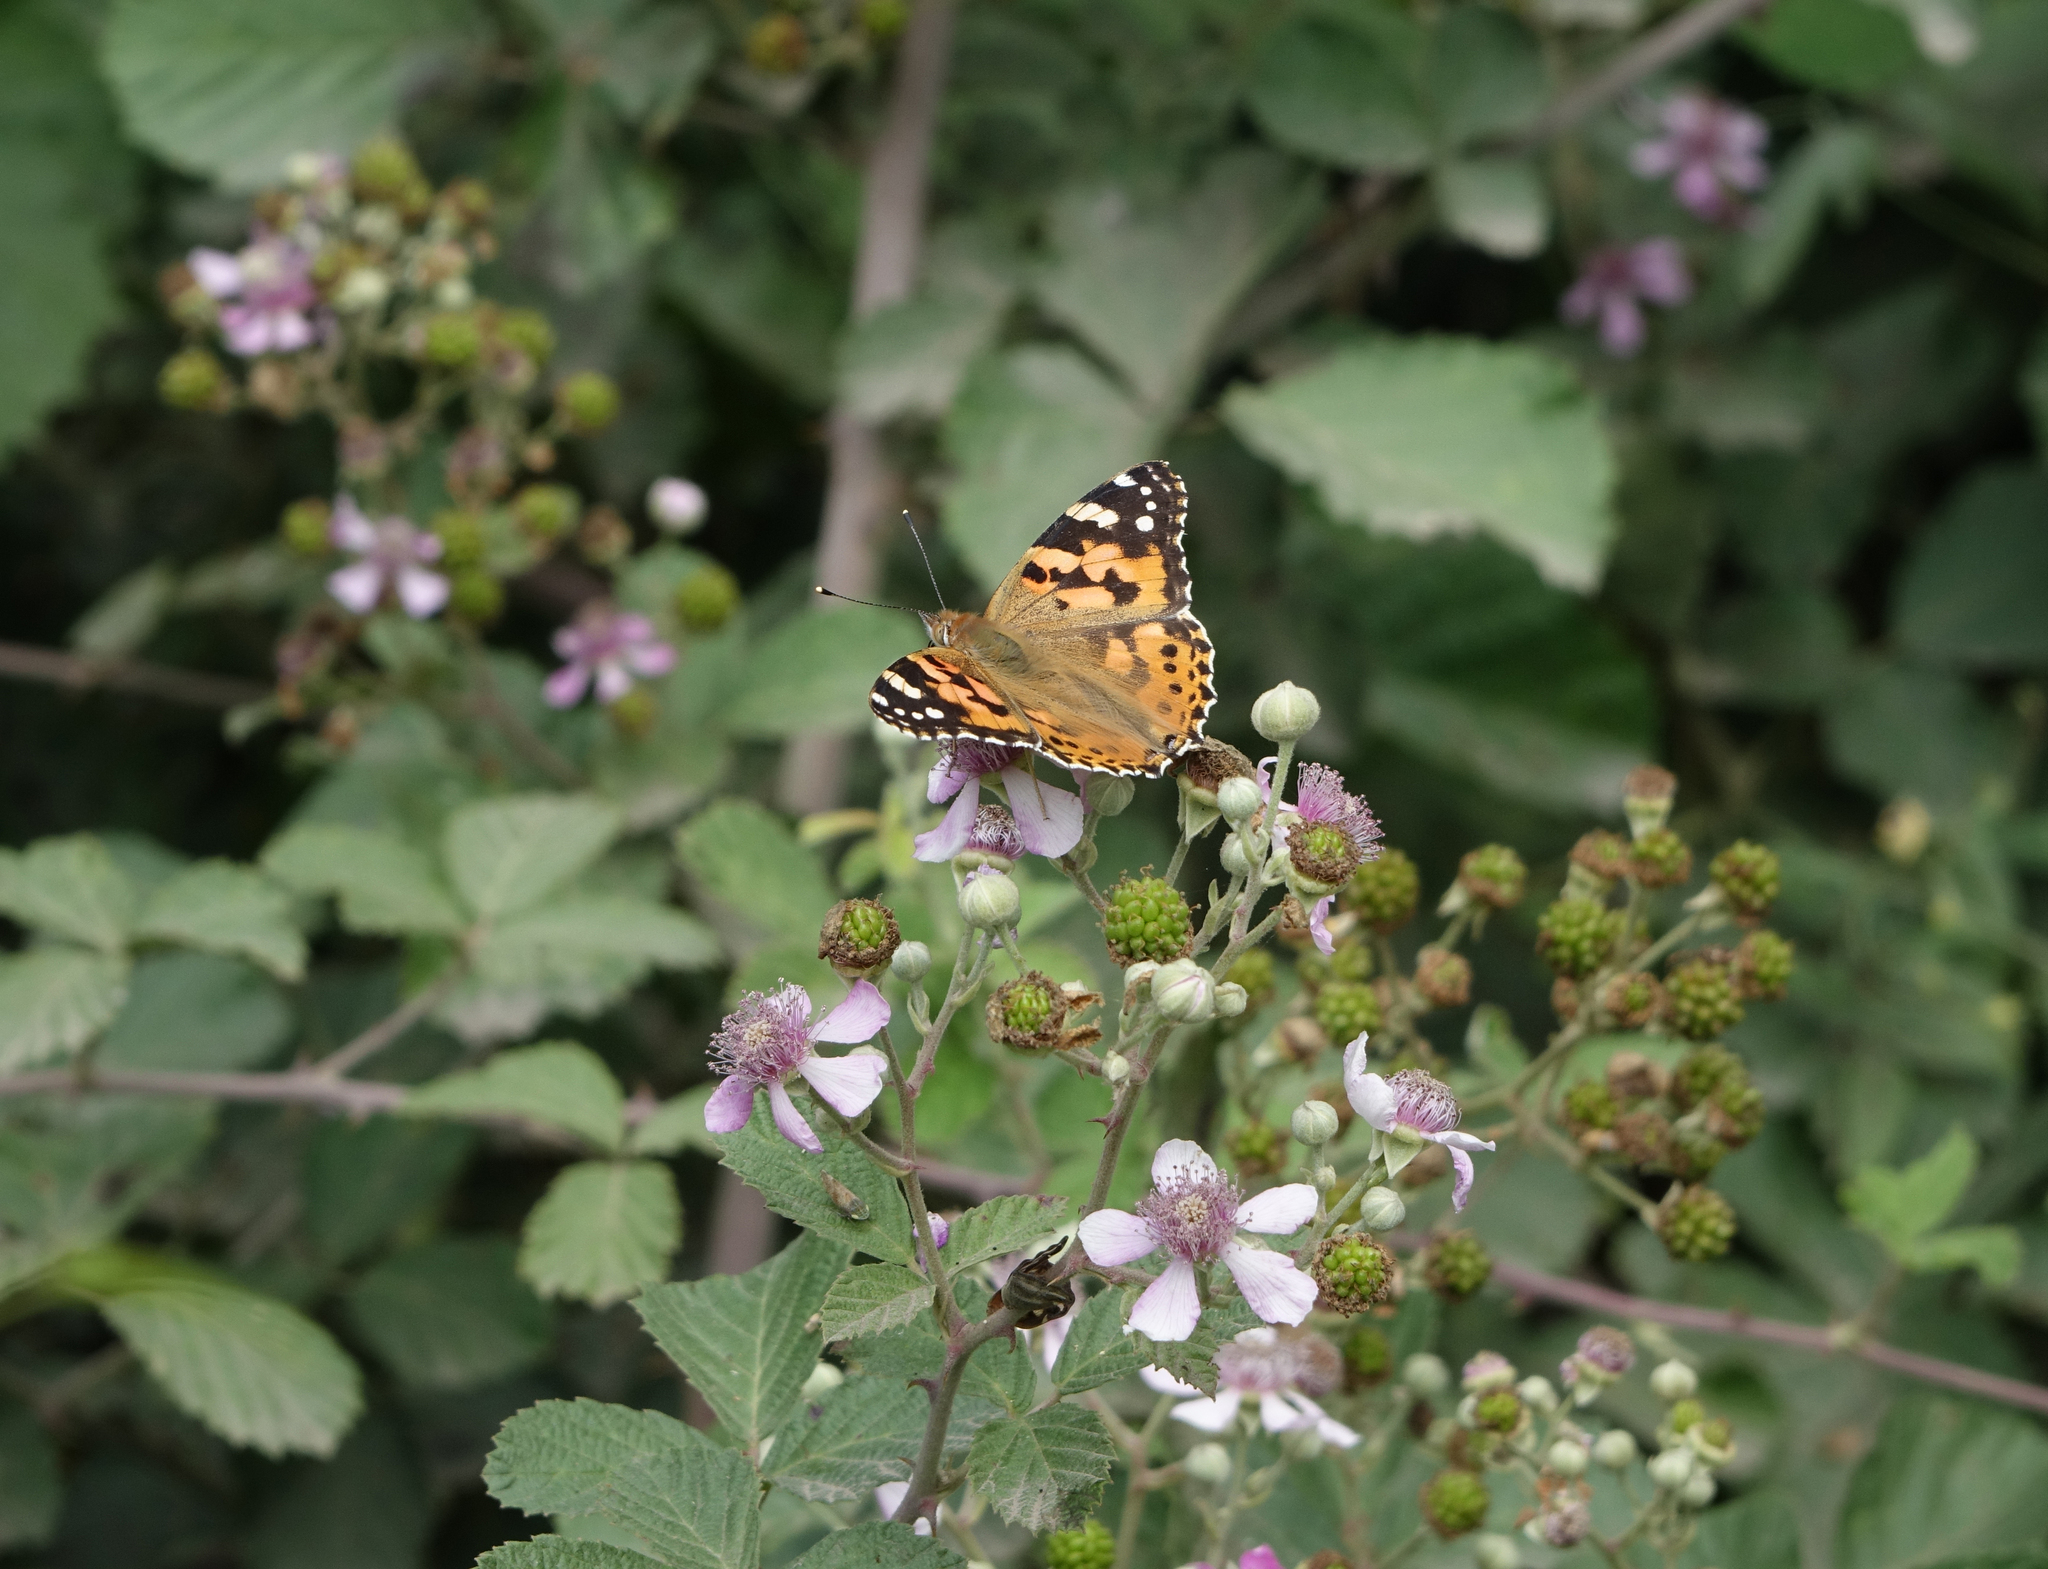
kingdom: Plantae
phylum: Tracheophyta
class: Magnoliopsida
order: Rosales
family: Rosaceae
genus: Rubus
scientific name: Rubus sanctus
